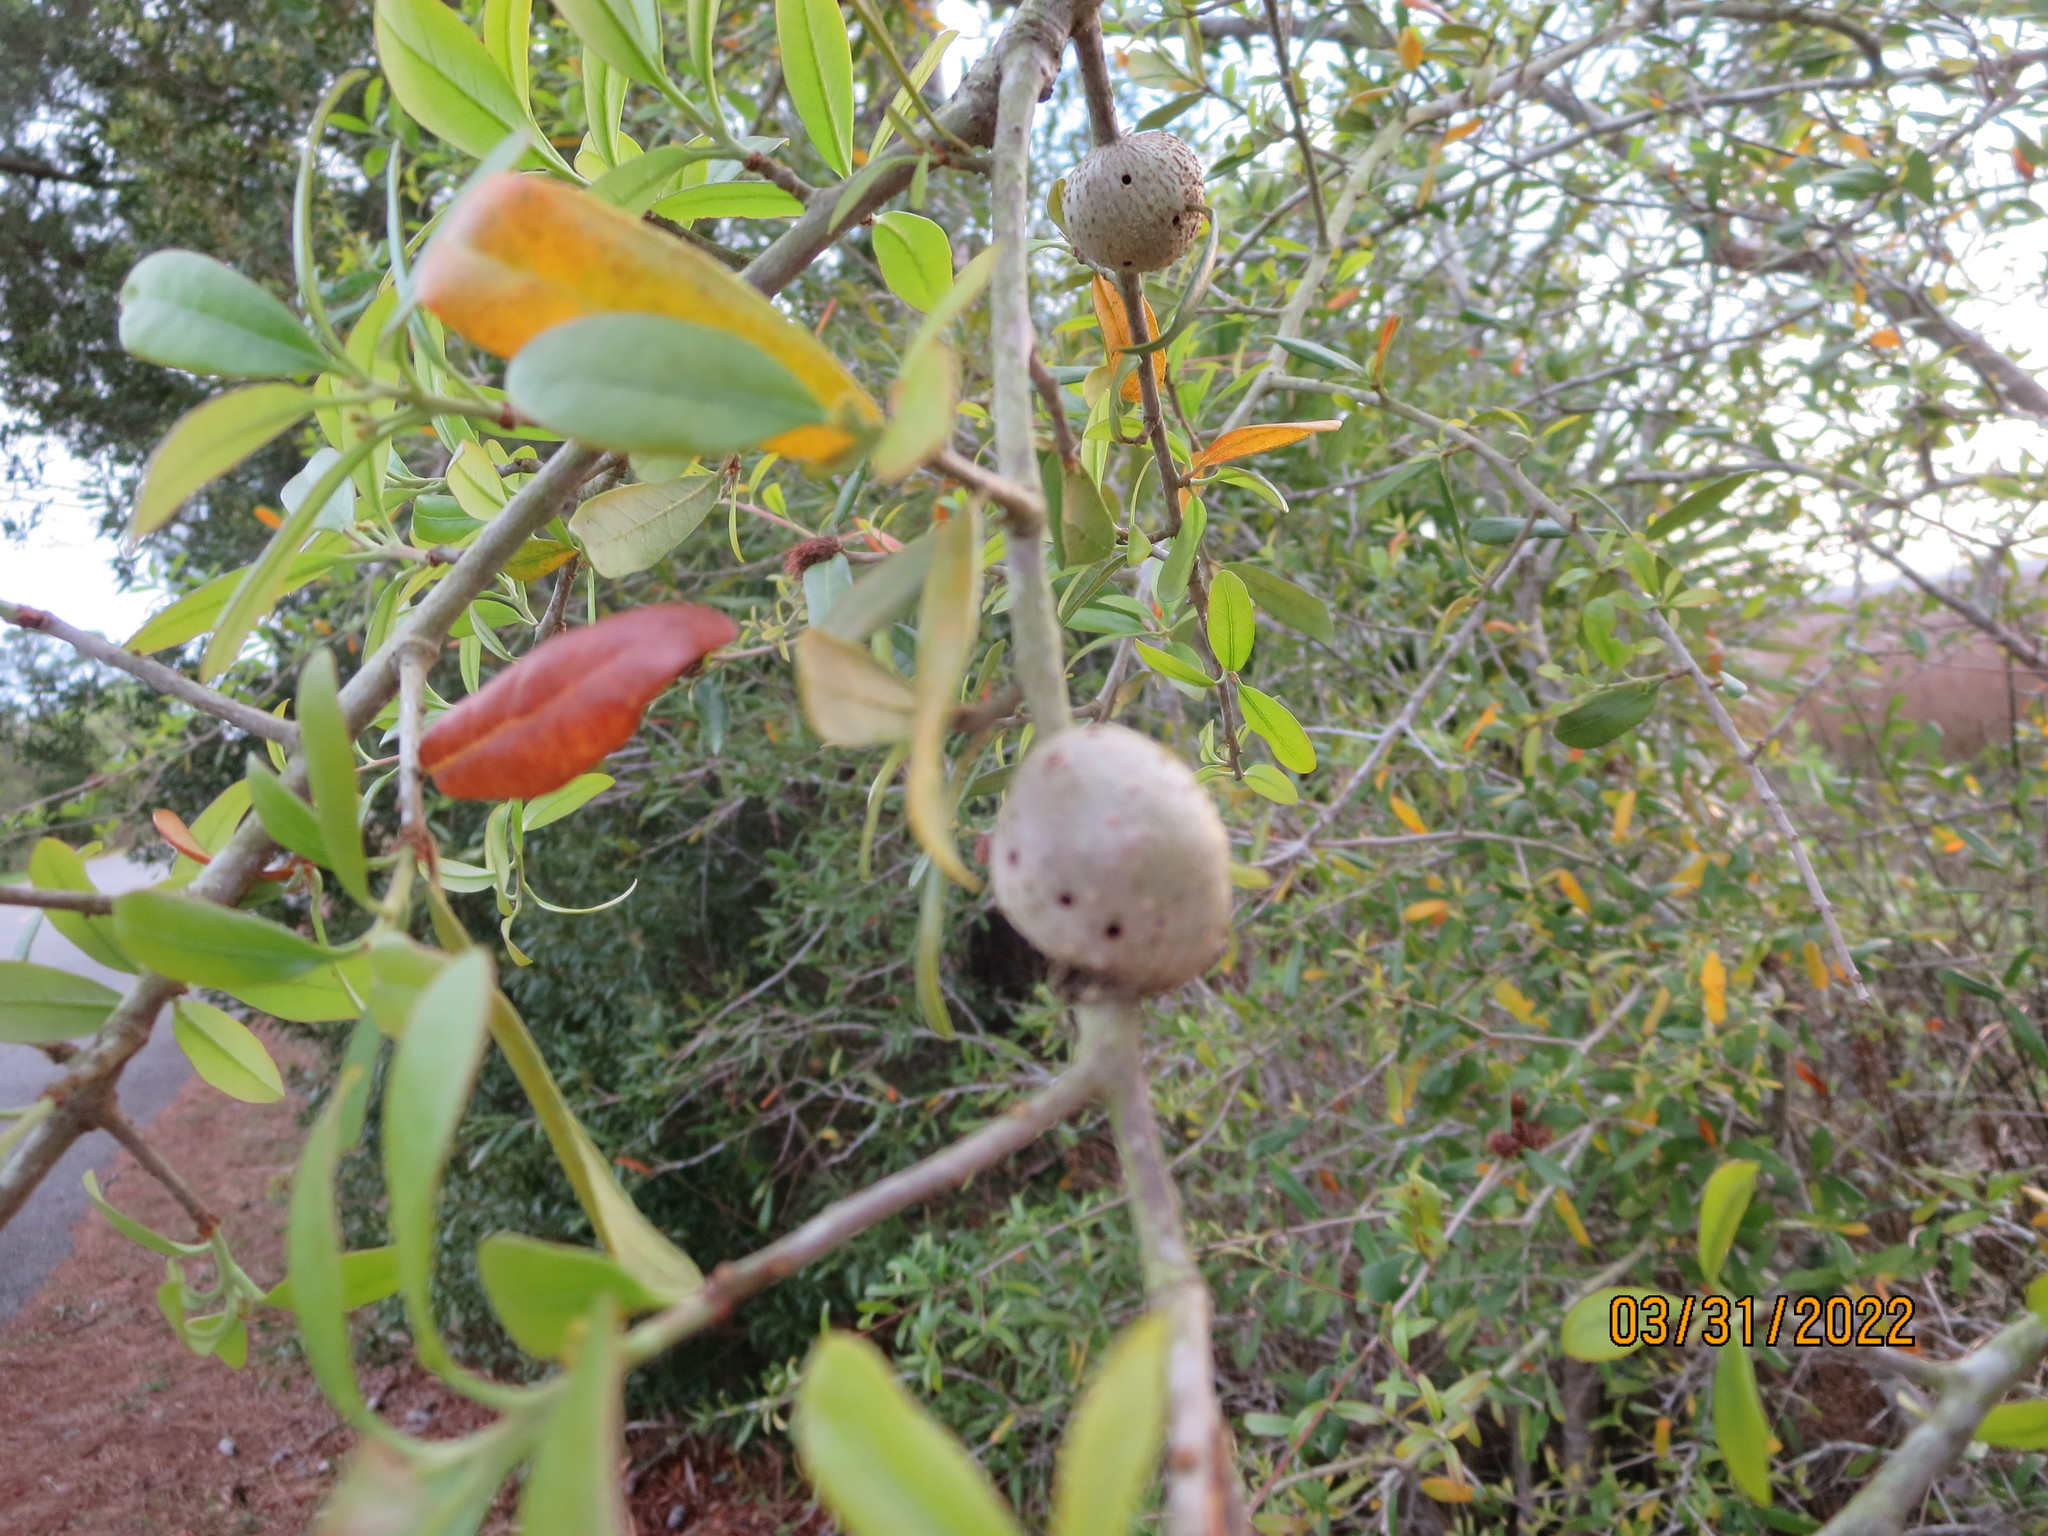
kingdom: Animalia
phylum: Arthropoda
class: Insecta
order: Hymenoptera
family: Cynipidae
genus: Callirhytis
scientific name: Callirhytis
